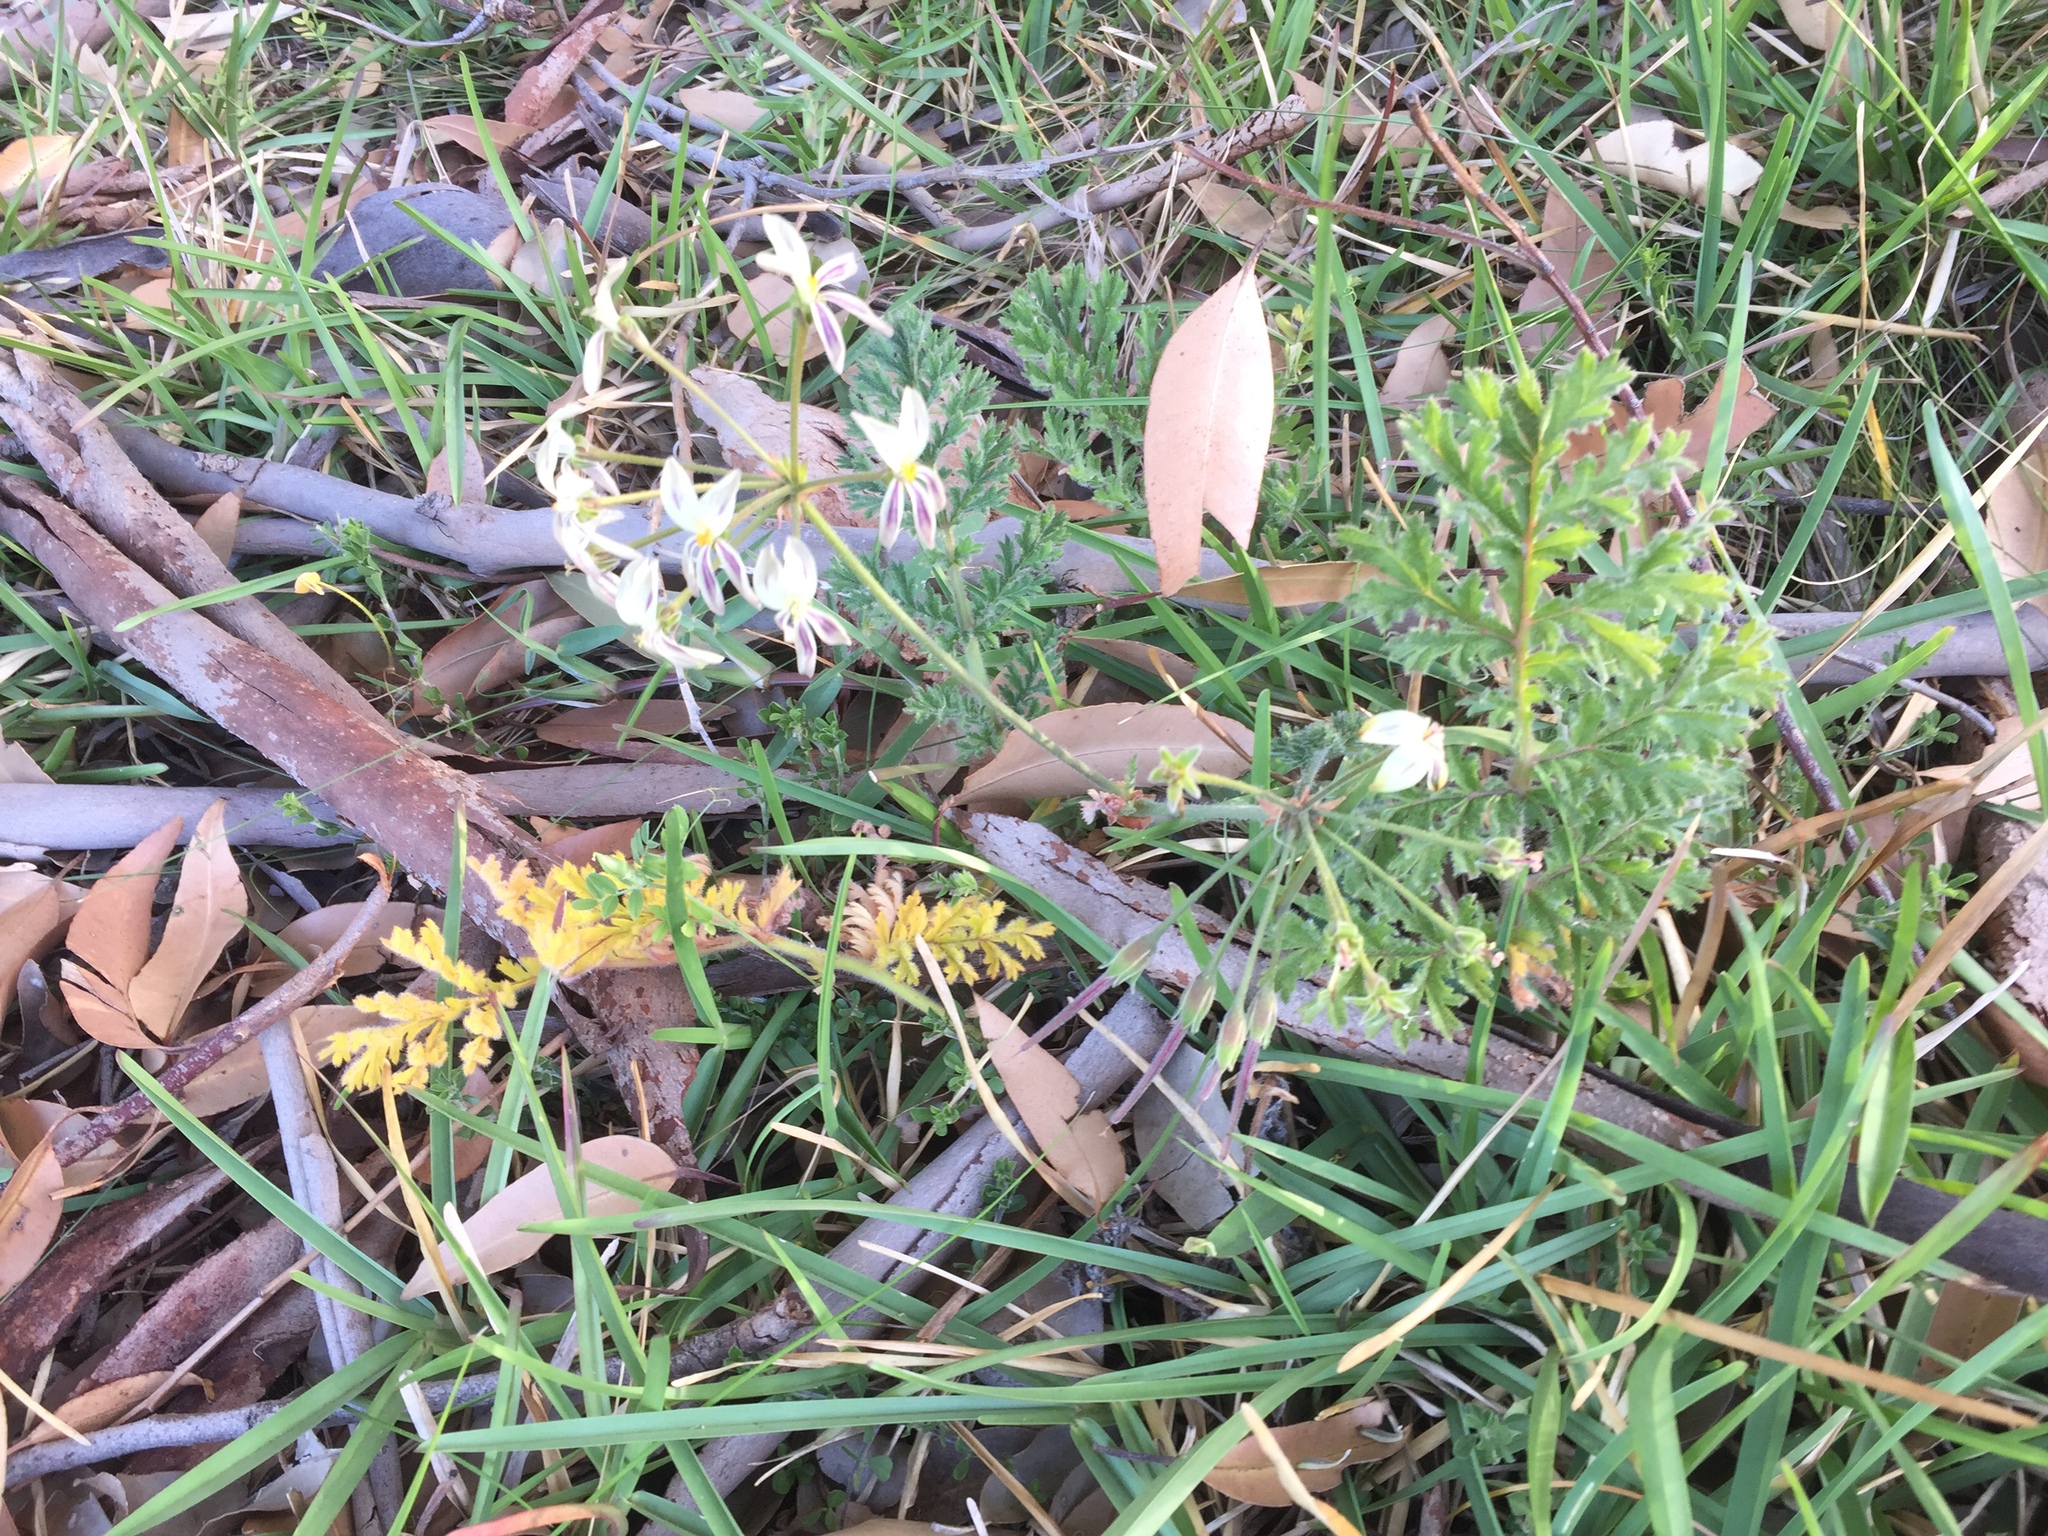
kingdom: Plantae
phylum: Tracheophyta
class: Magnoliopsida
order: Geraniales
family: Geraniaceae
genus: Pelargonium
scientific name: Pelargonium triste
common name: Night-scent pelargonium
